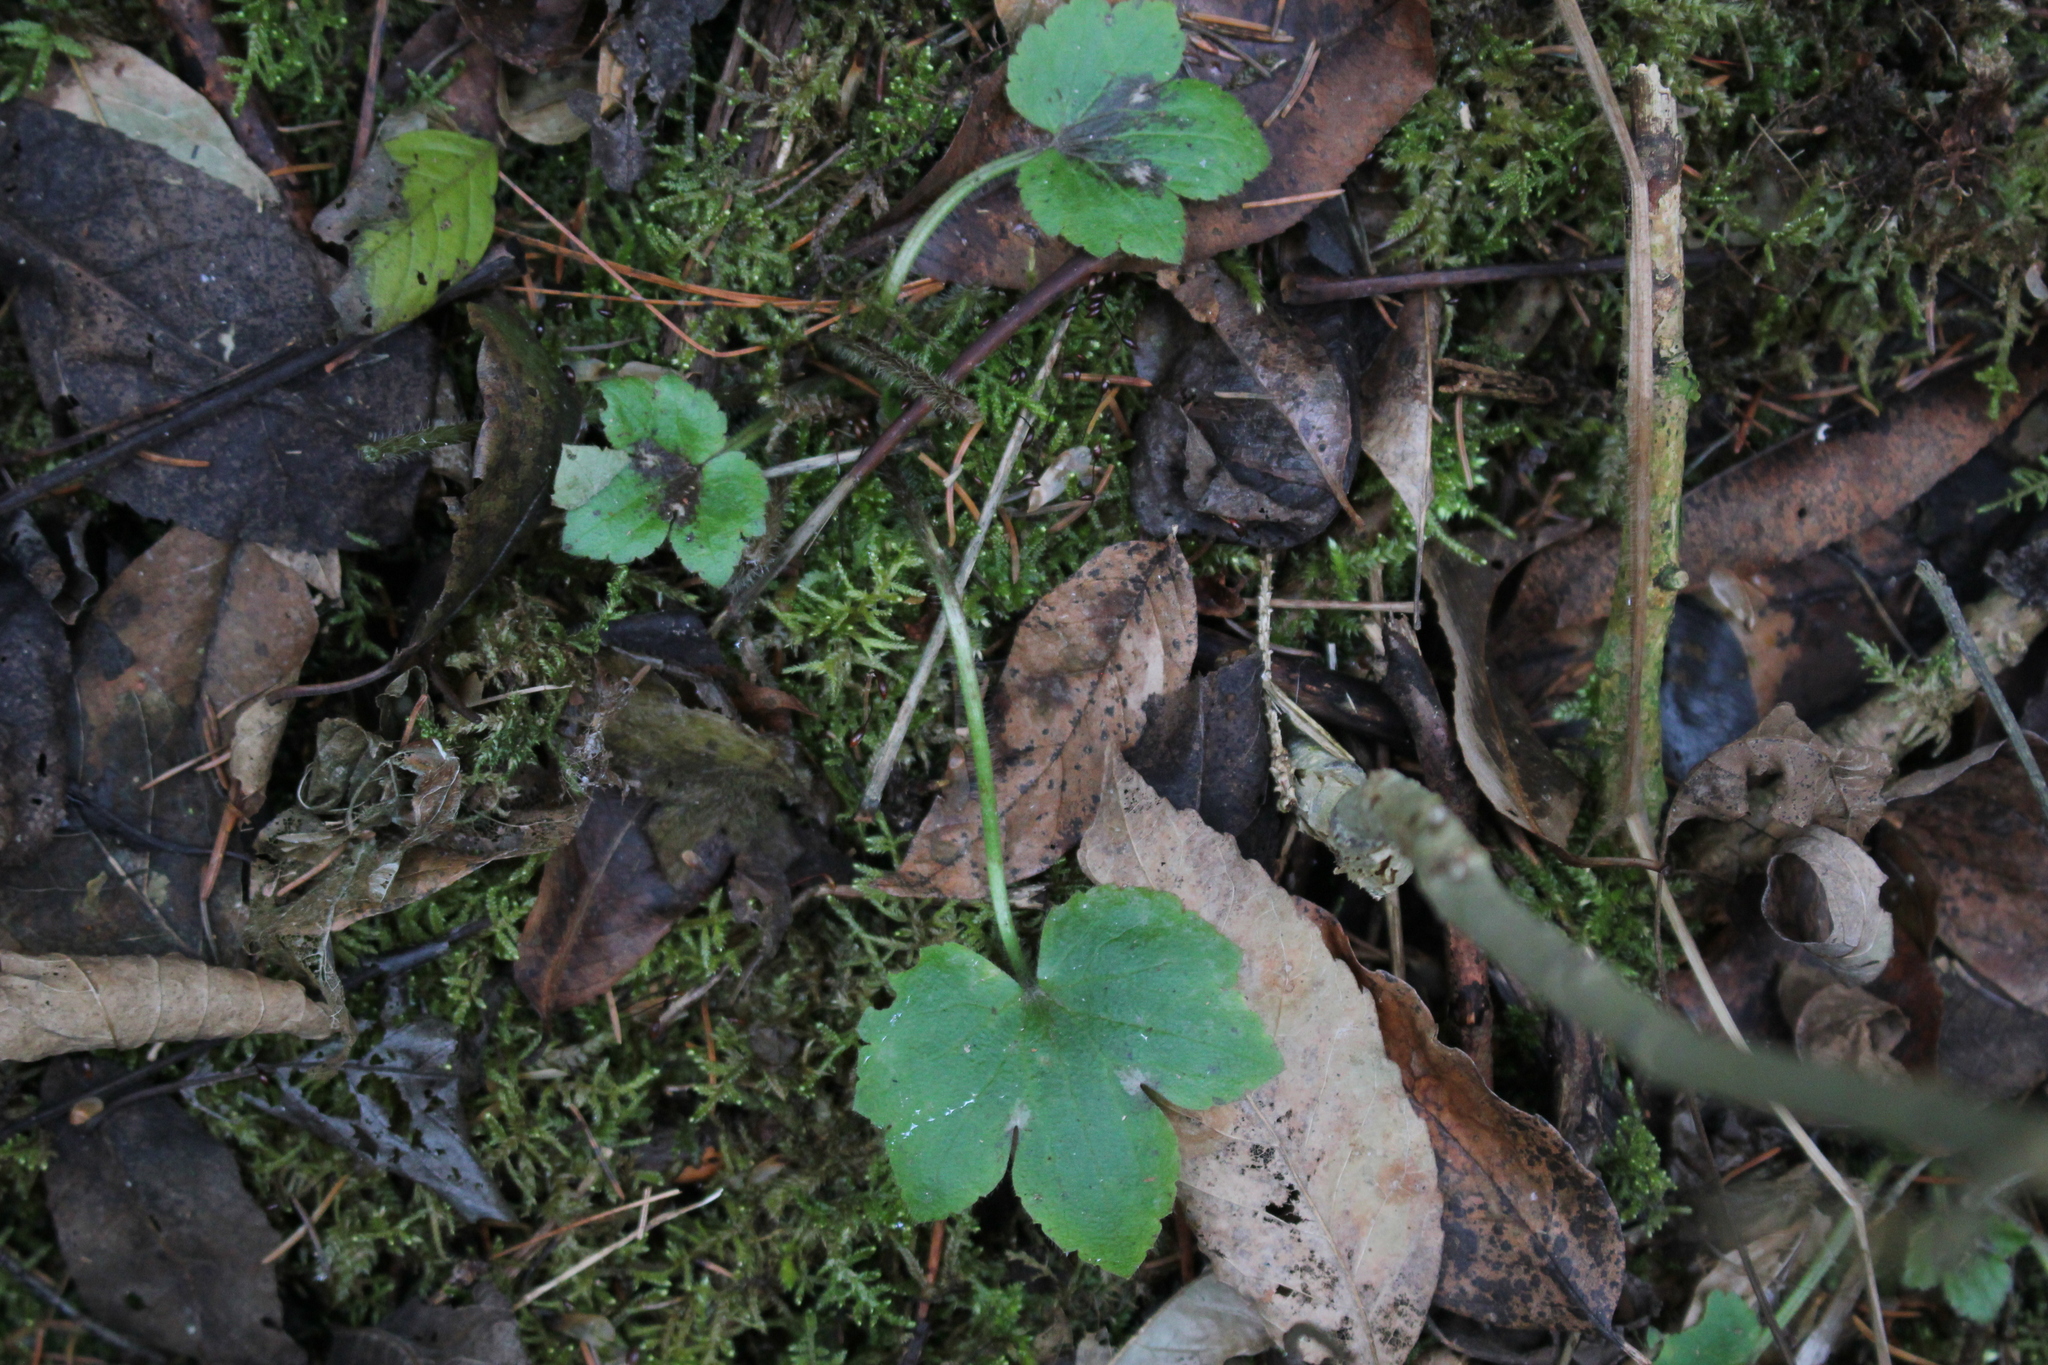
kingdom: Plantae
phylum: Tracheophyta
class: Magnoliopsida
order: Ranunculales
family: Ranunculaceae
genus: Ranunculus
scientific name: Ranunculus recurvatus
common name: Blisterwort
